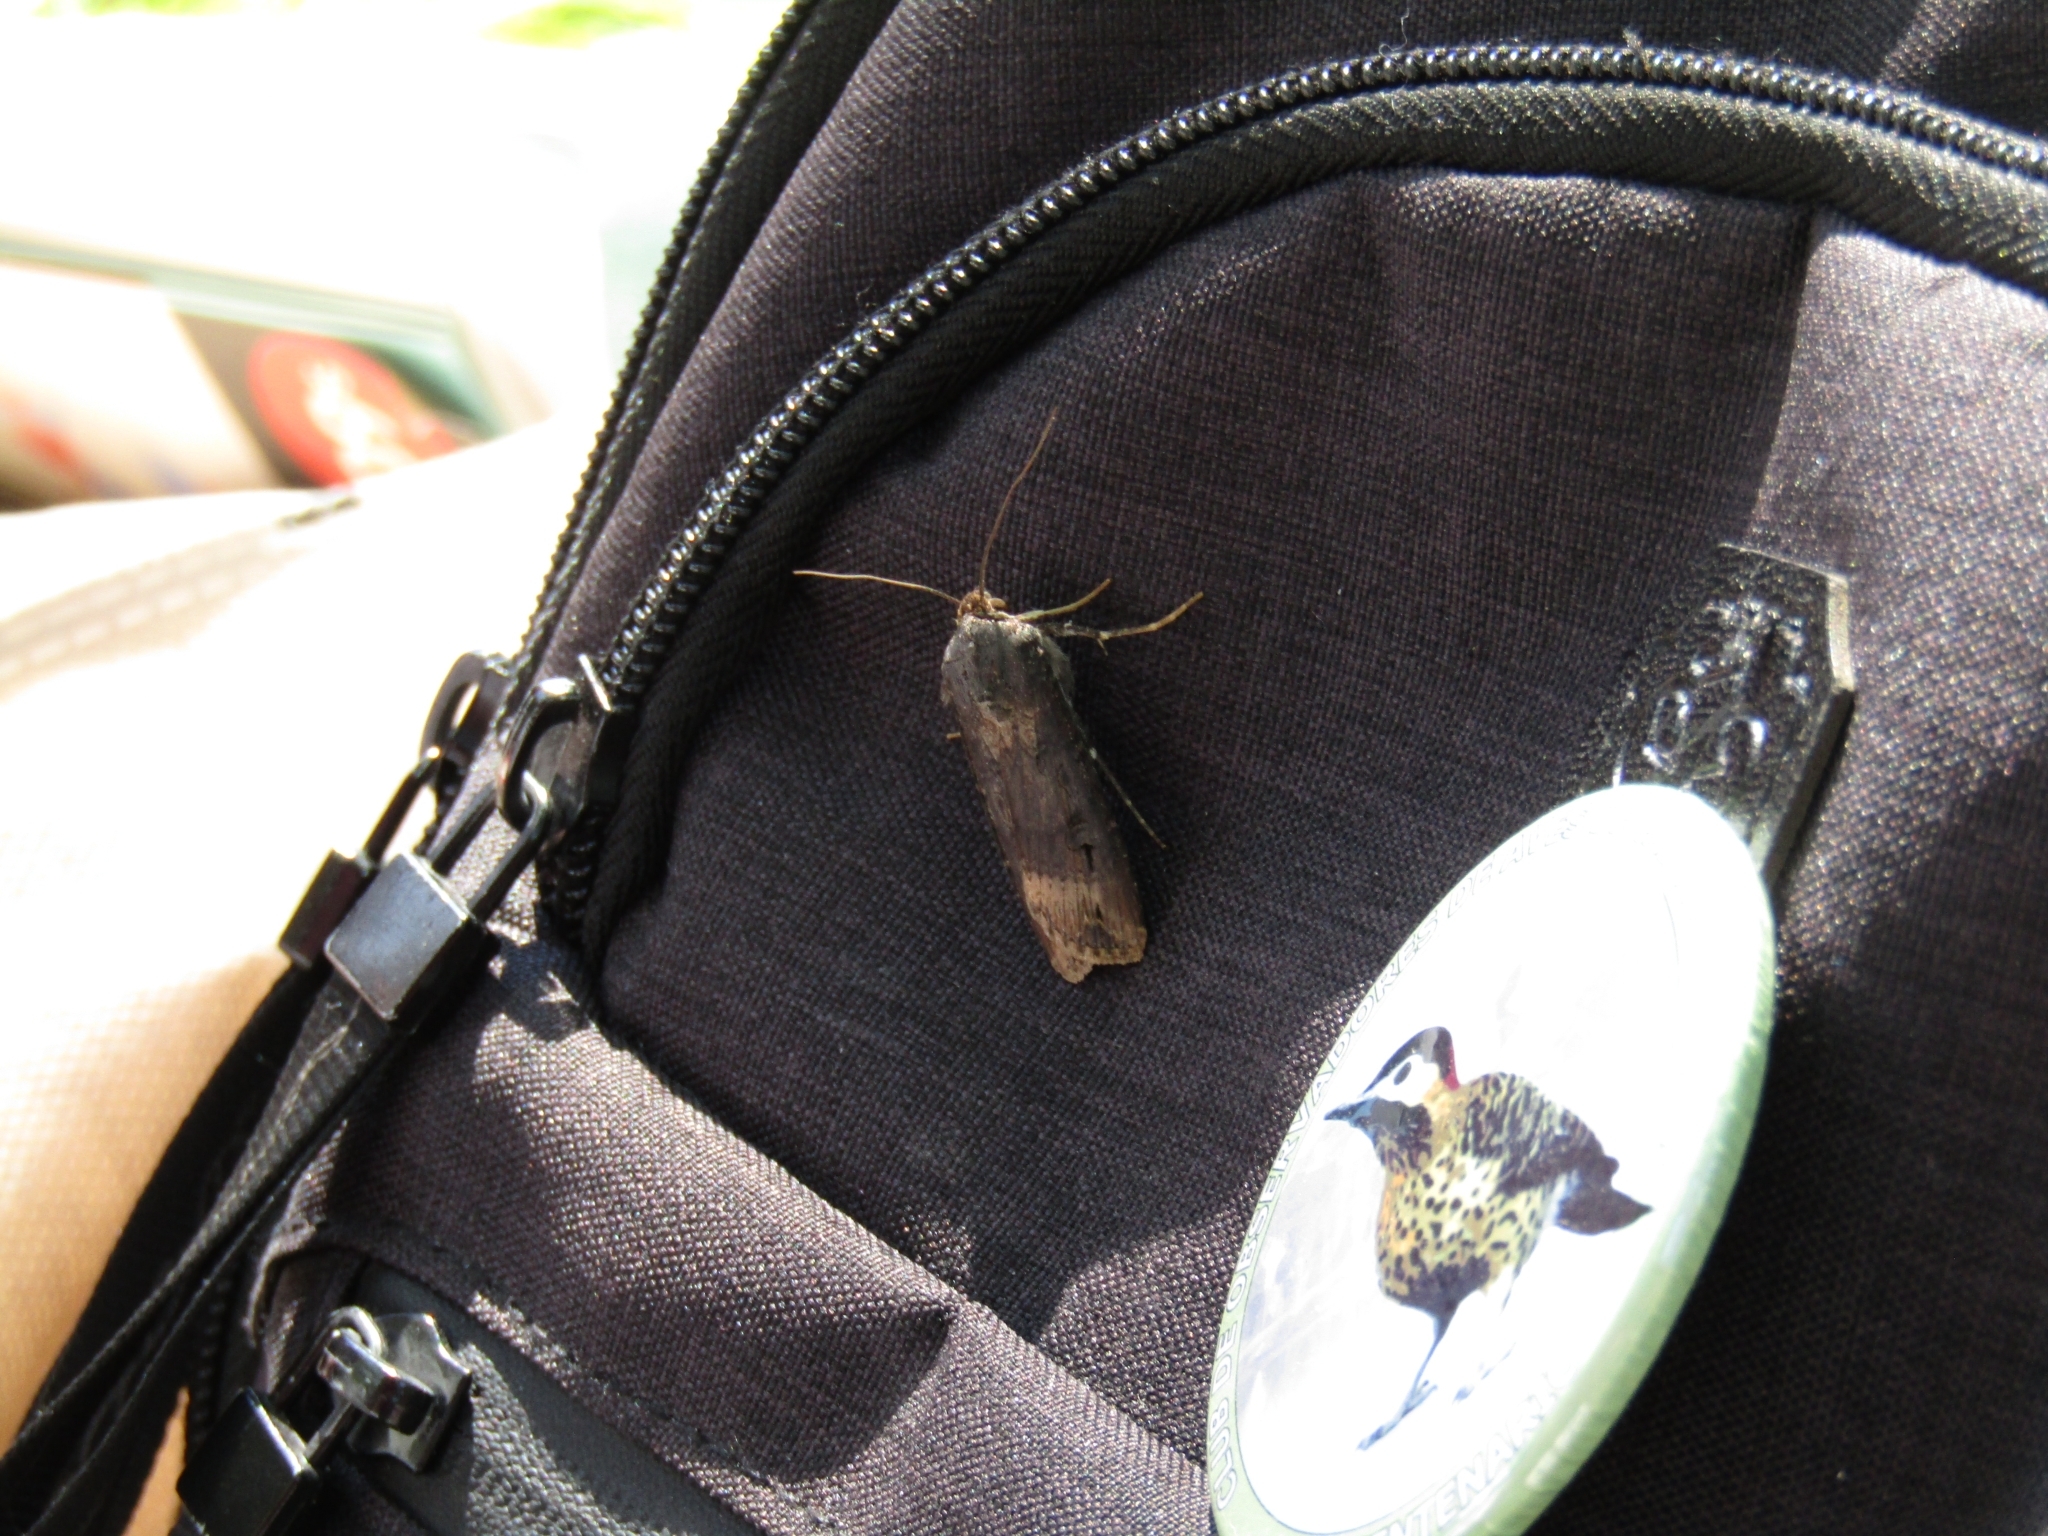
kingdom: Animalia
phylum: Arthropoda
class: Insecta
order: Lepidoptera
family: Noctuidae
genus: Agrotis
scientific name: Agrotis ipsilon
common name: Dark sword-grass
